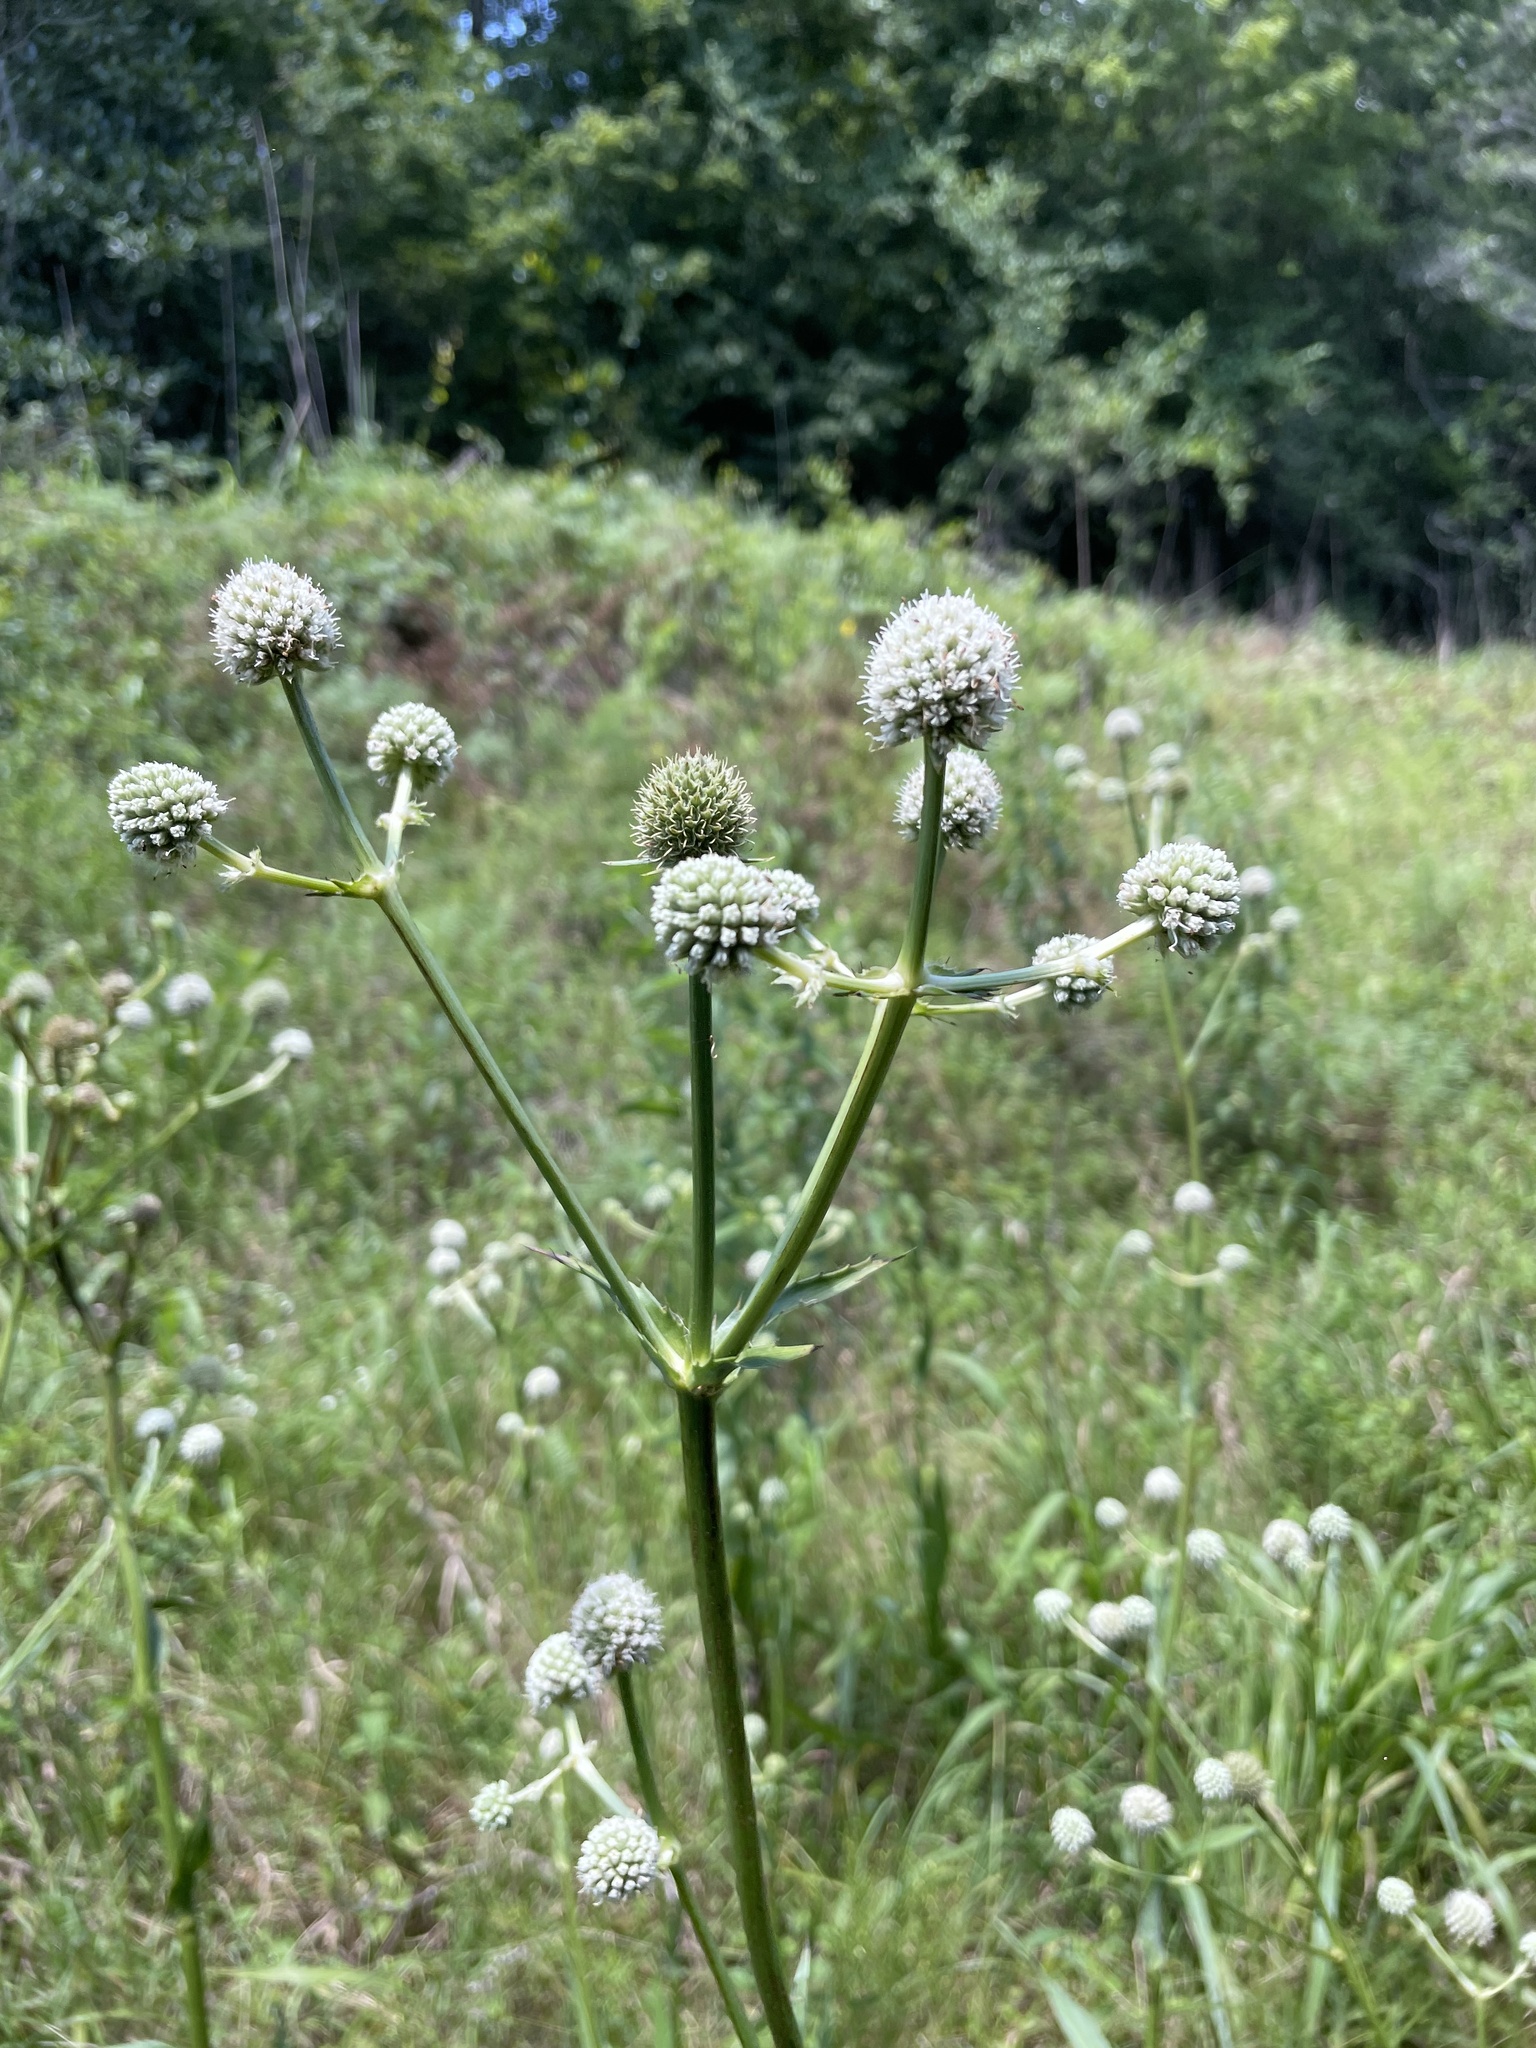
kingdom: Plantae
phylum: Tracheophyta
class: Magnoliopsida
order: Apiales
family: Apiaceae
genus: Eryngium
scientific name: Eryngium yuccifolium
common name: Button eryngo
